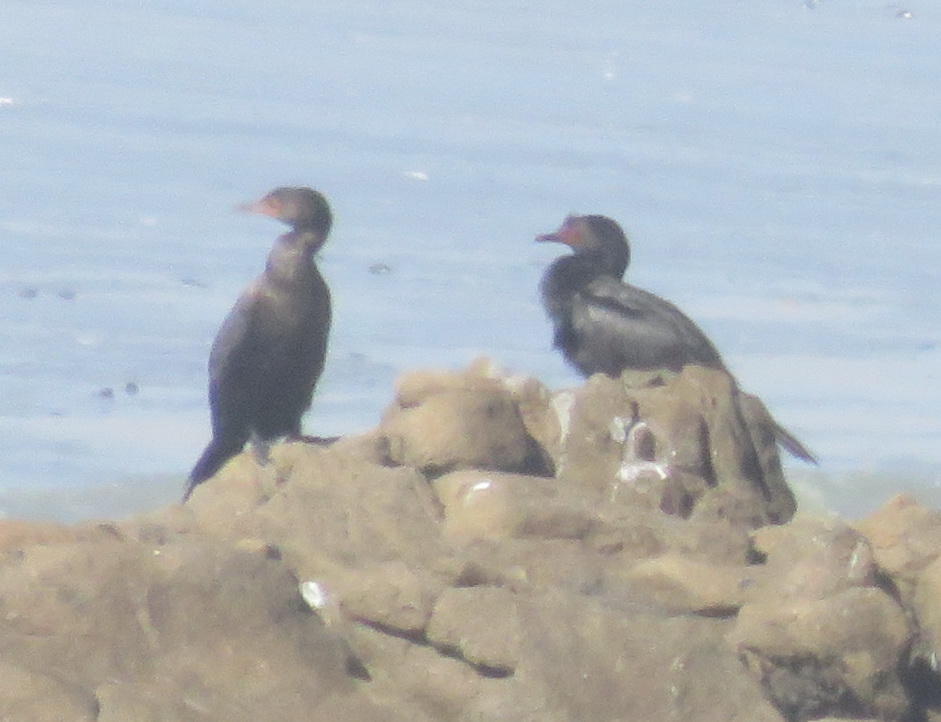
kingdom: Animalia
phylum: Chordata
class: Aves
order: Suliformes
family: Phalacrocoracidae
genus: Microcarbo
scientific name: Microcarbo coronatus
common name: Crowned cormorant
